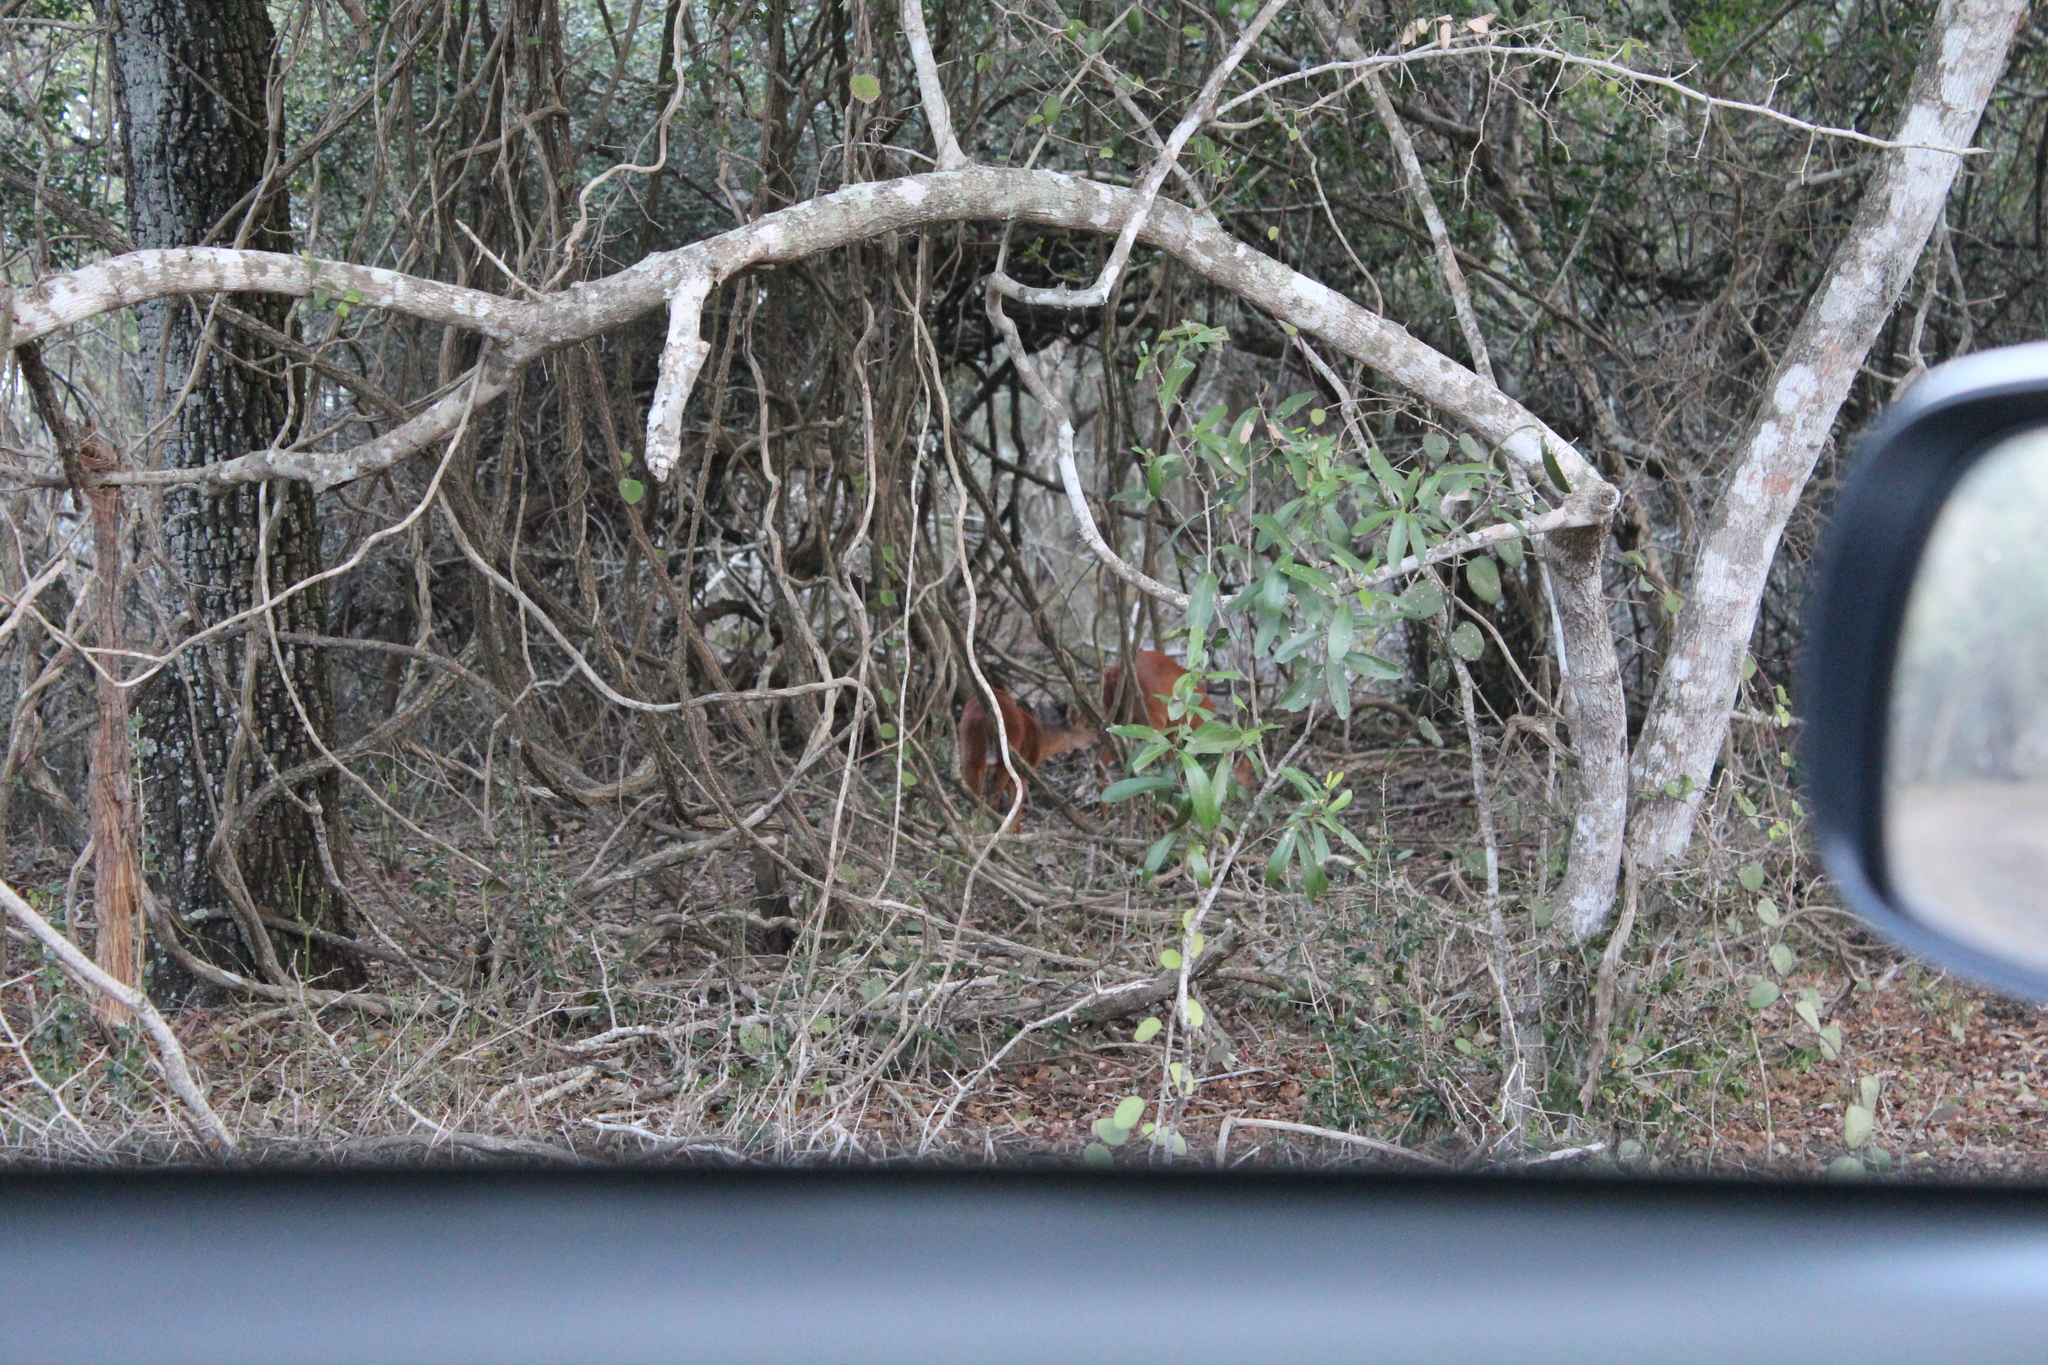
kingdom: Animalia
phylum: Chordata
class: Mammalia
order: Artiodactyla
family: Bovidae
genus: Cephalophus
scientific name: Cephalophus natalensis
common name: Red duiker
